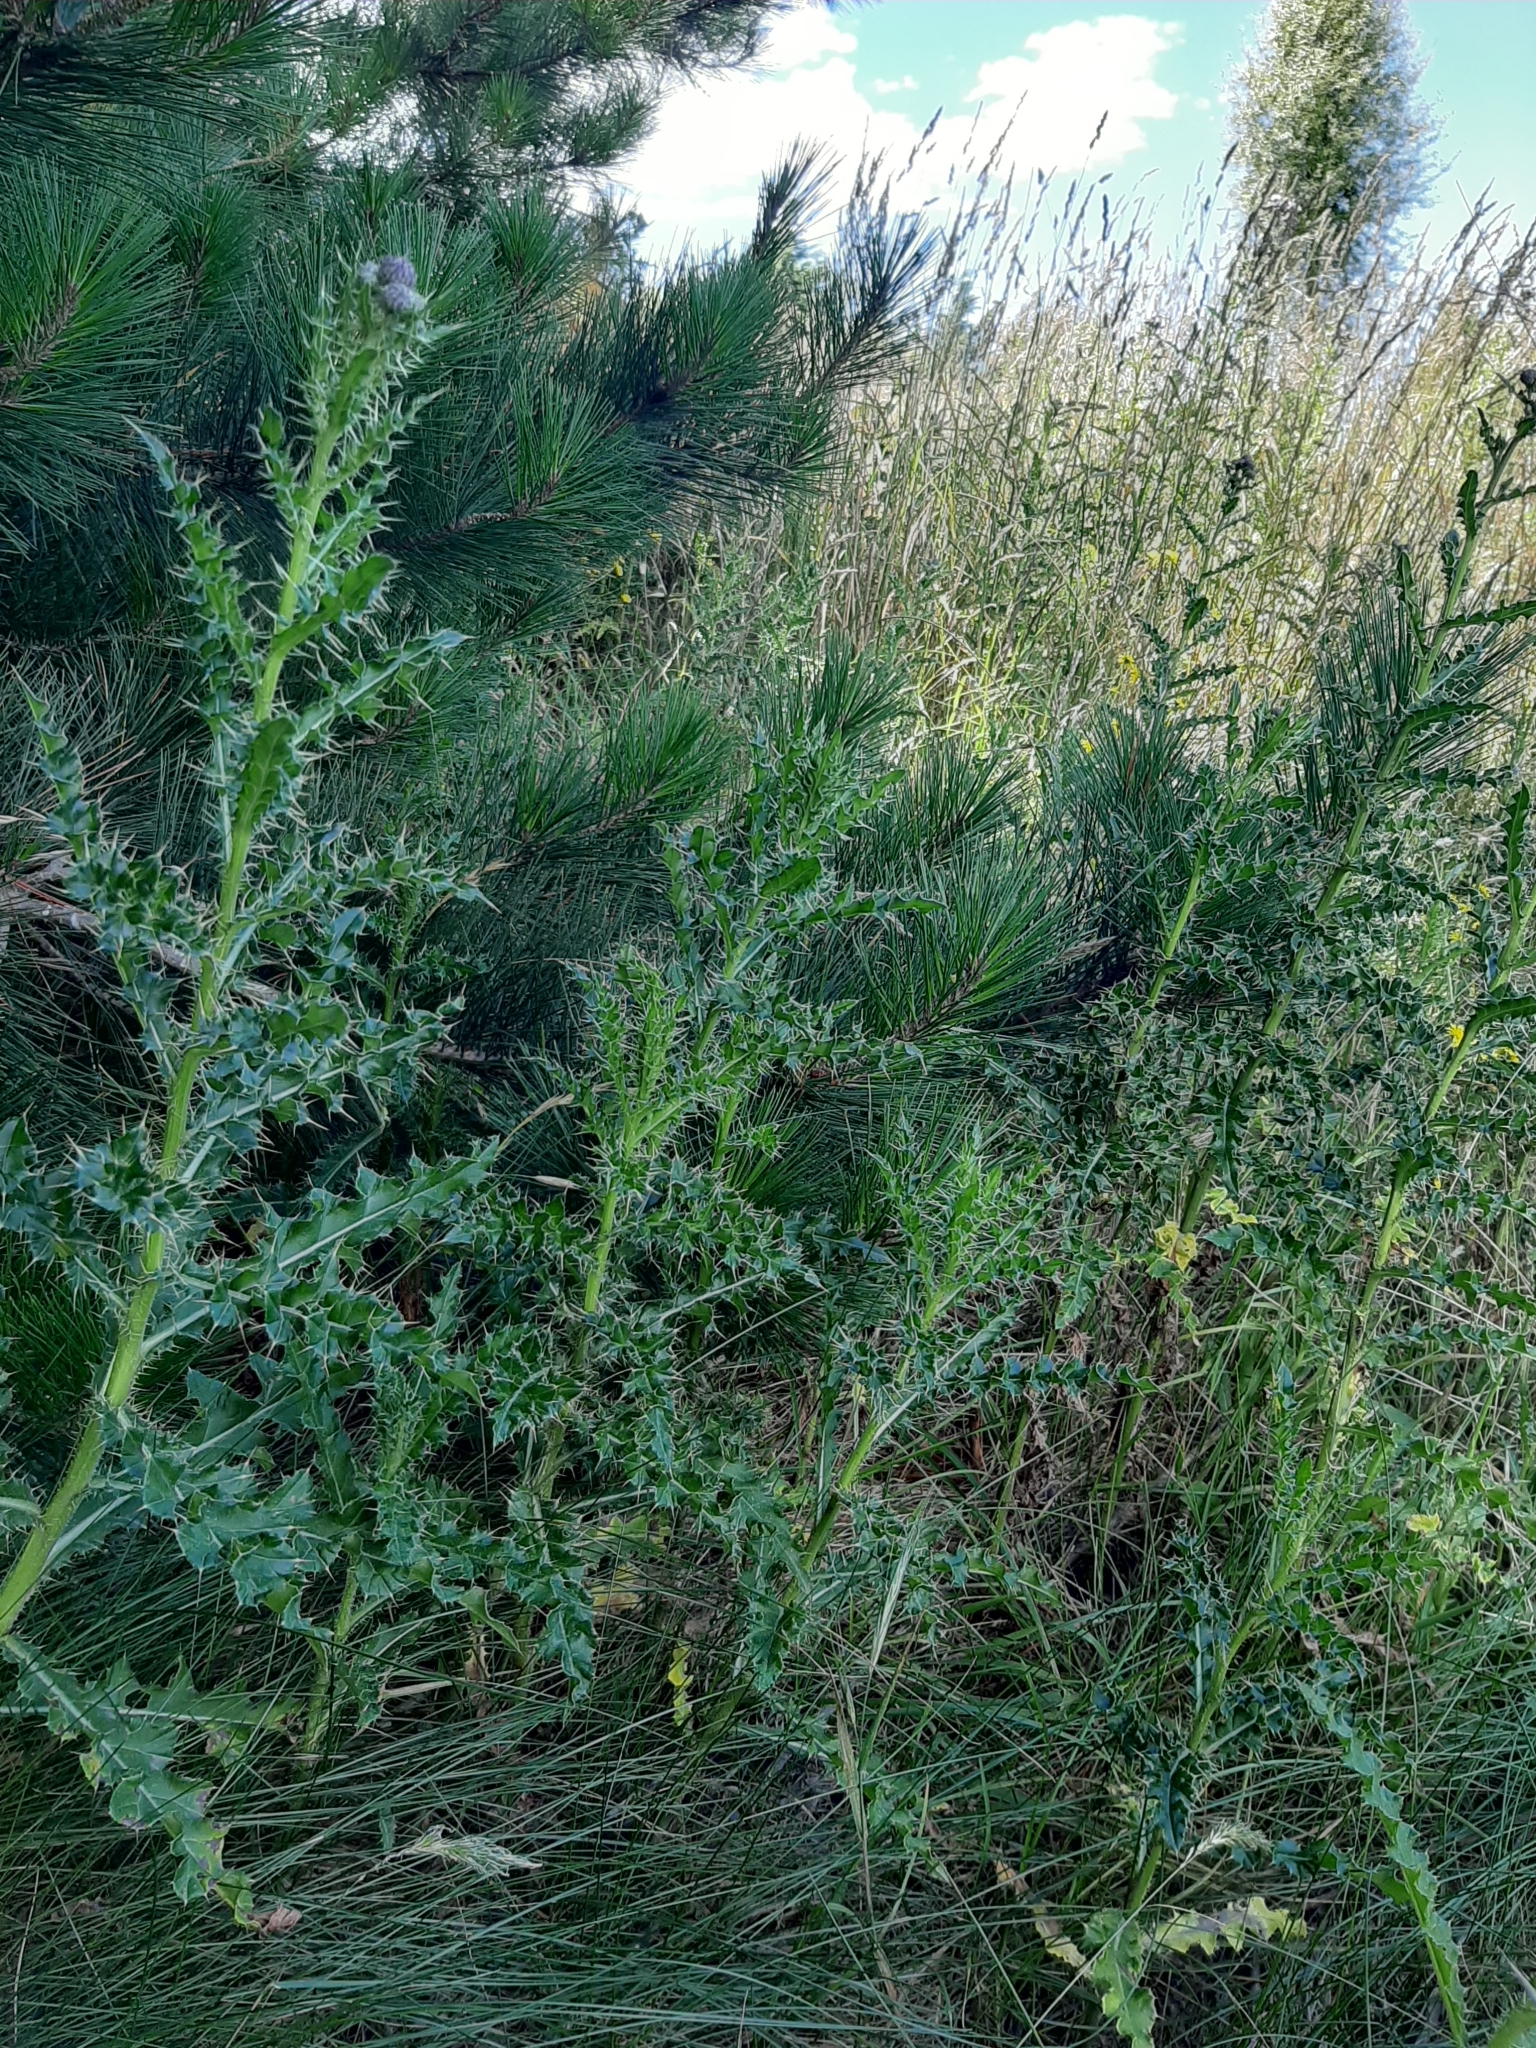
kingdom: Plantae
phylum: Tracheophyta
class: Magnoliopsida
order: Asterales
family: Asteraceae
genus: Cirsium
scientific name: Cirsium arvense
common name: Creeping thistle
